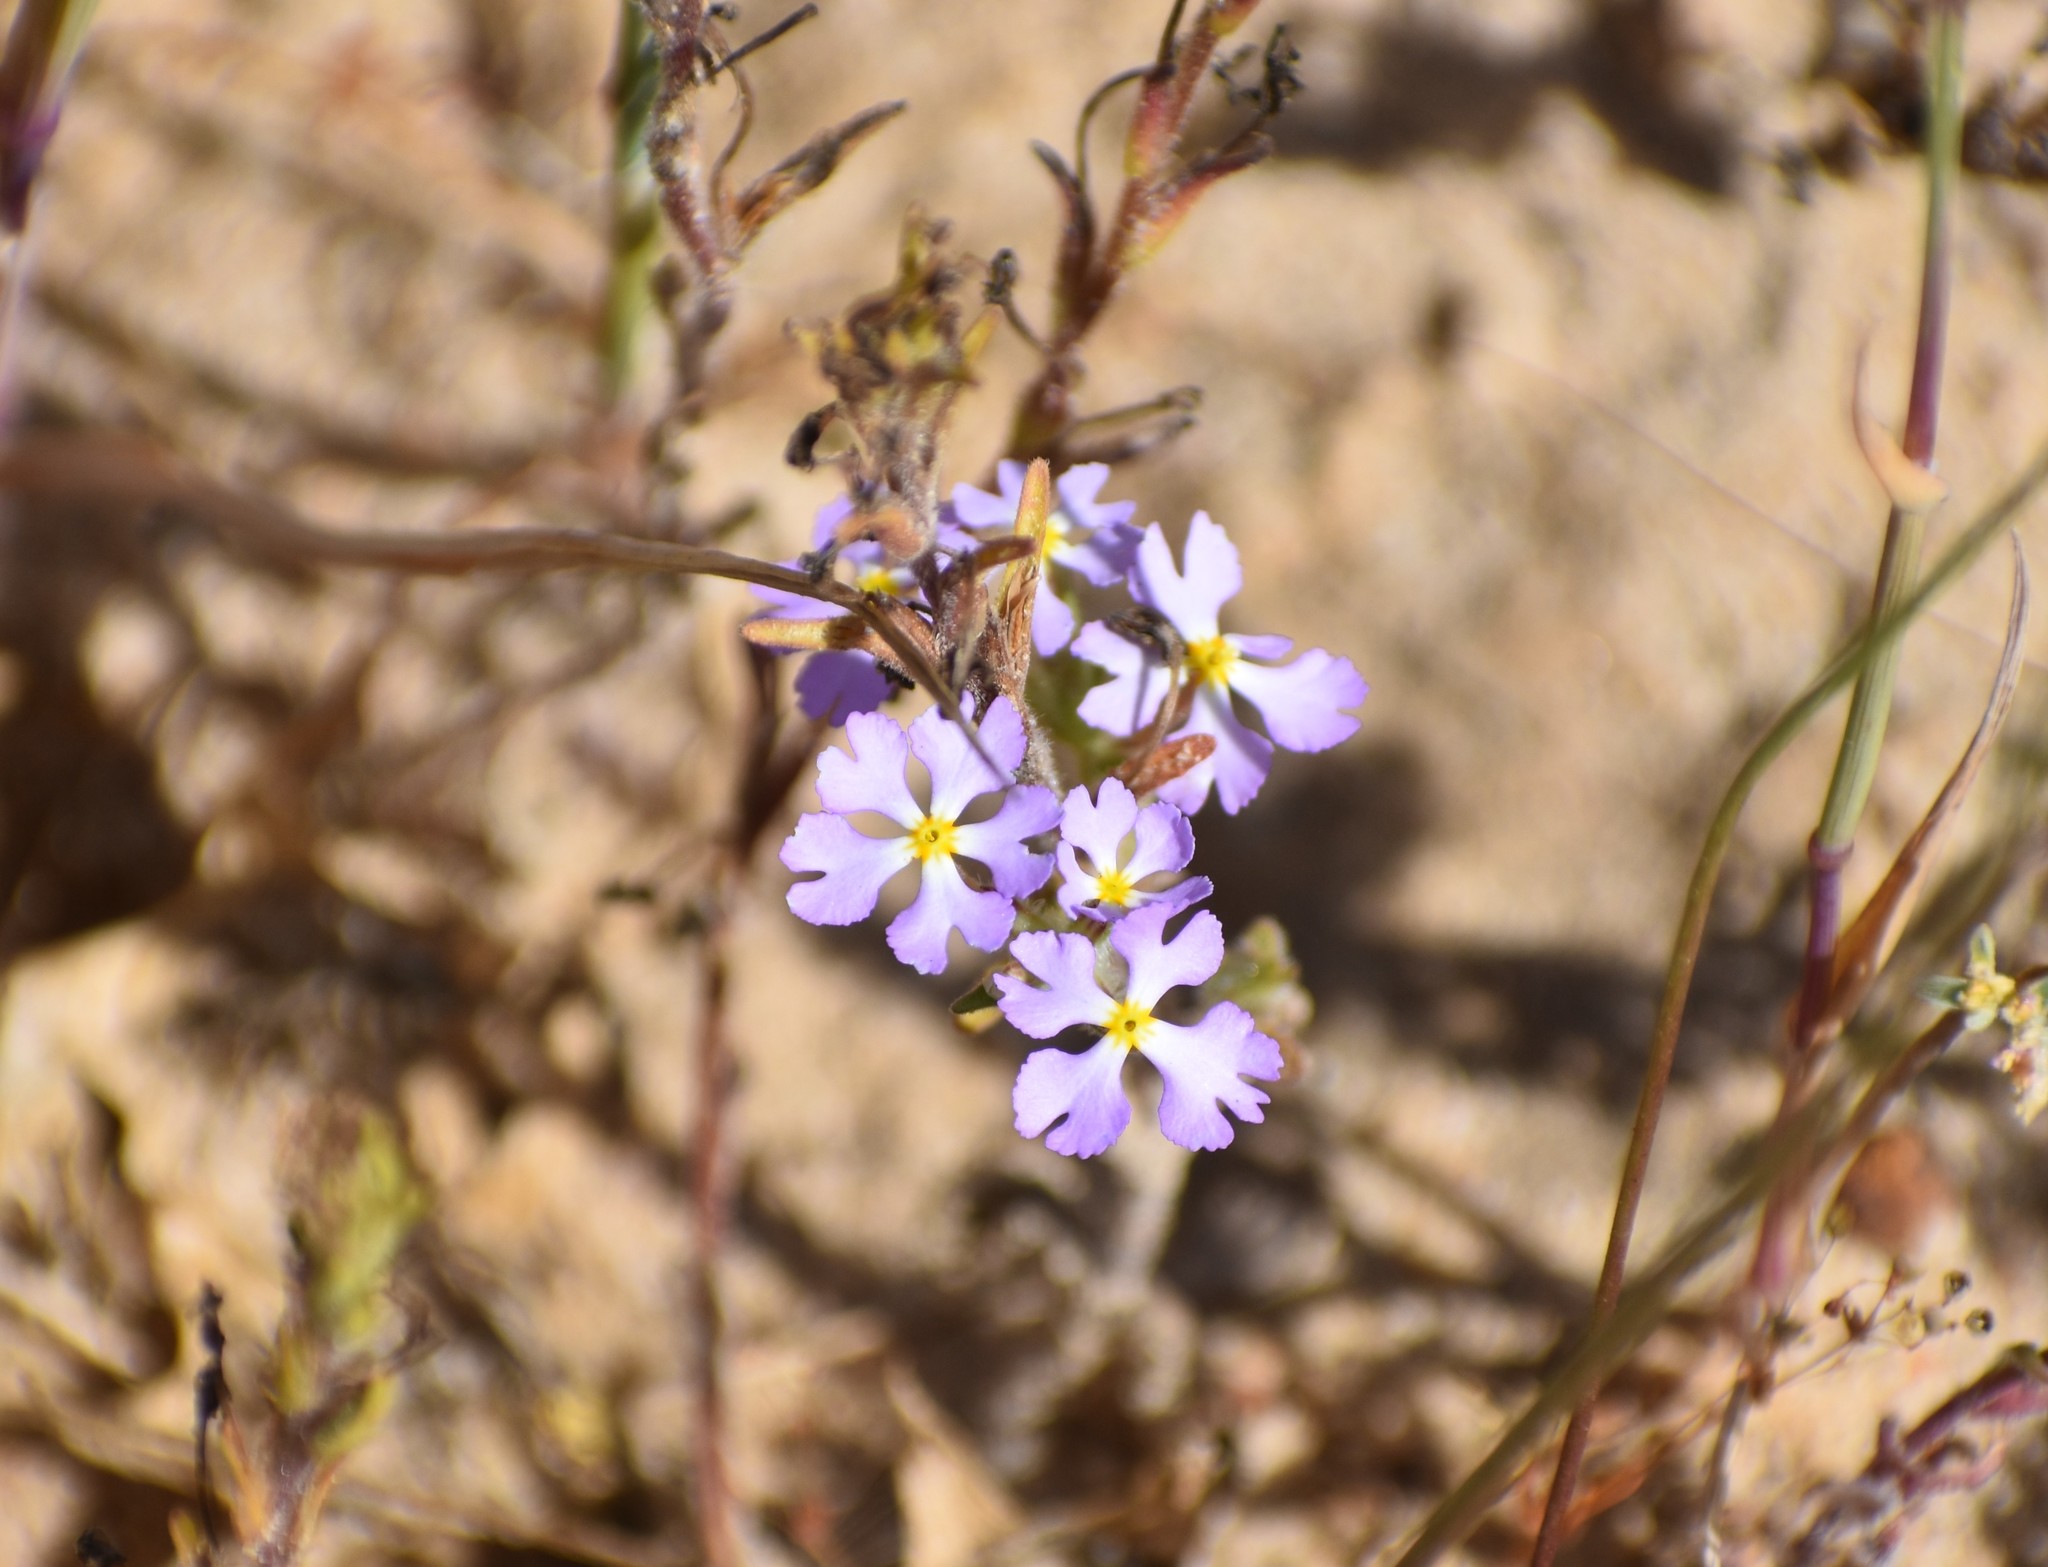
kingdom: Plantae
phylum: Tracheophyta
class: Magnoliopsida
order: Lamiales
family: Scrophulariaceae
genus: Zaluzianskya
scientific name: Zaluzianskya affinis
